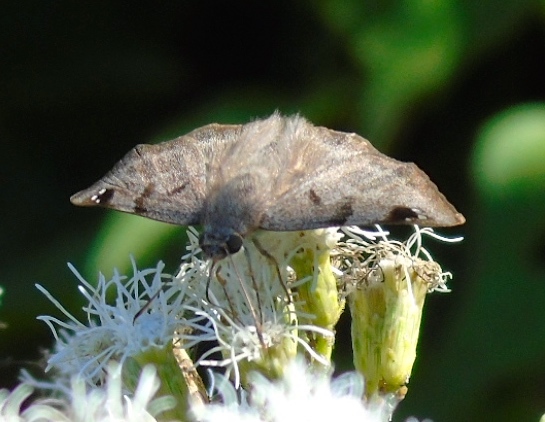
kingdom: Animalia
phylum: Arthropoda
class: Insecta
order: Lepidoptera
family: Hesperiidae
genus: Arteurotia
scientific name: Arteurotia tractipennis
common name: Starred skipper
